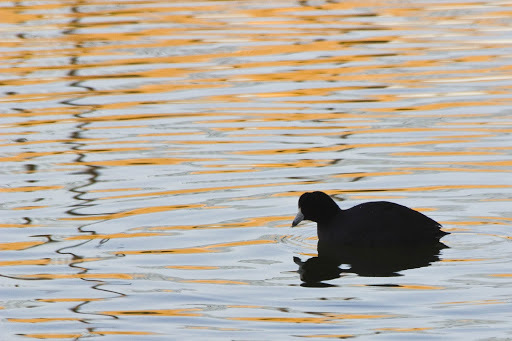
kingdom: Animalia
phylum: Chordata
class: Aves
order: Gruiformes
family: Rallidae
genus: Fulica
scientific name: Fulica americana
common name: American coot
